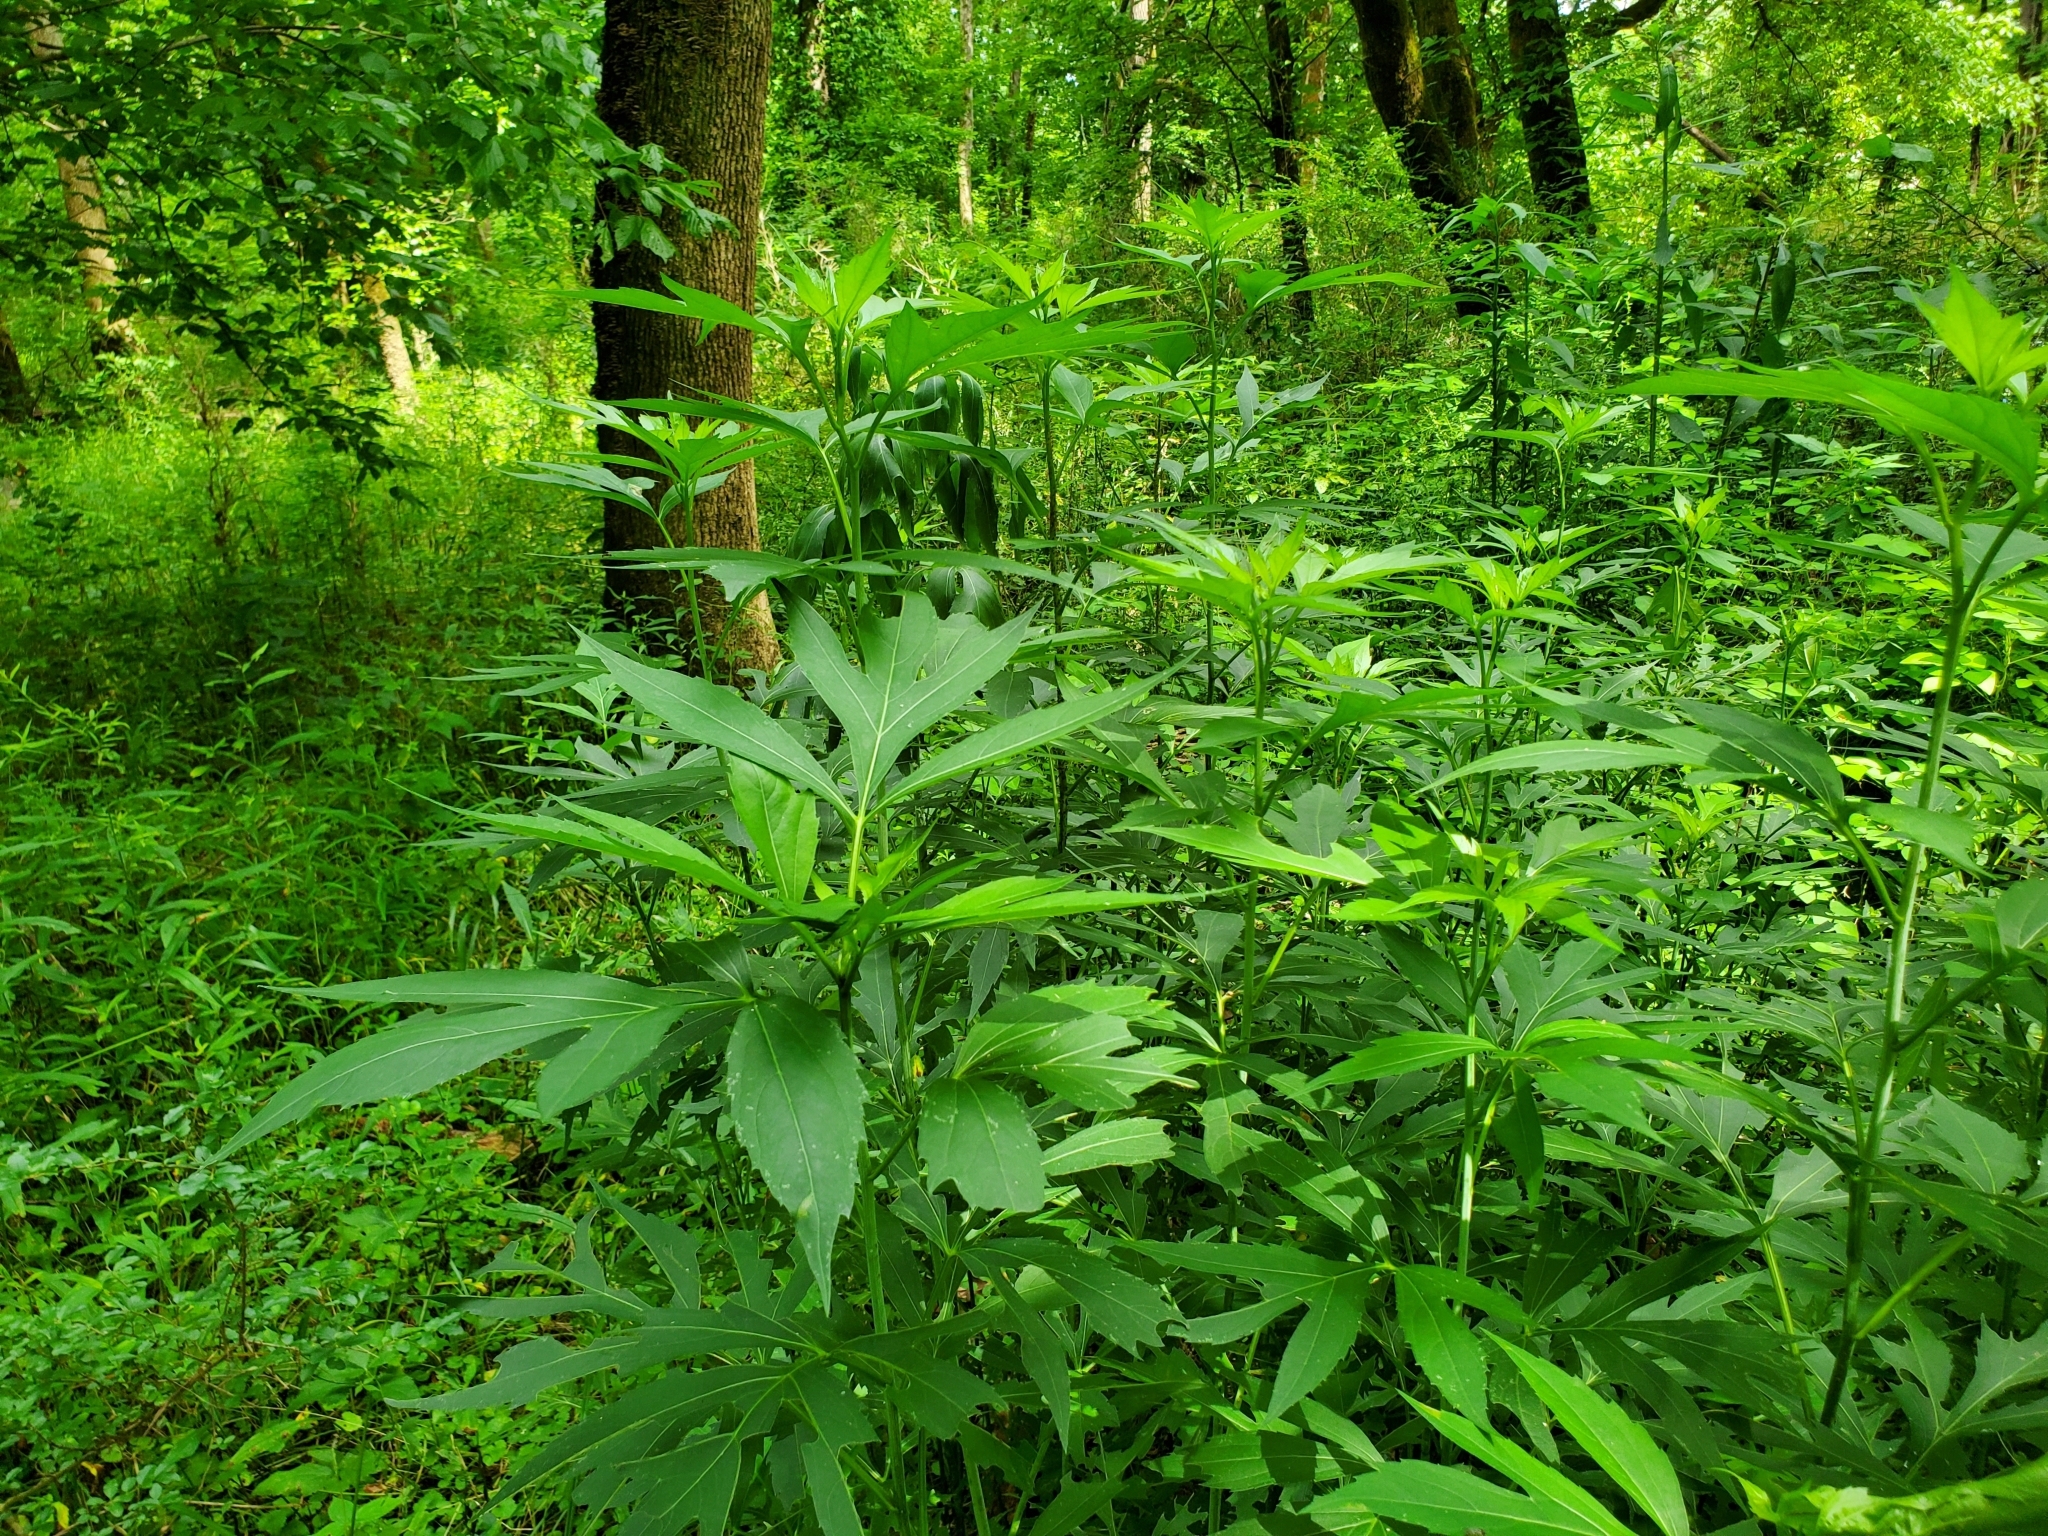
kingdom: Plantae
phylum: Tracheophyta
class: Magnoliopsida
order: Asterales
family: Asteraceae
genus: Rudbeckia
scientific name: Rudbeckia laciniata
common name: Coneflower
